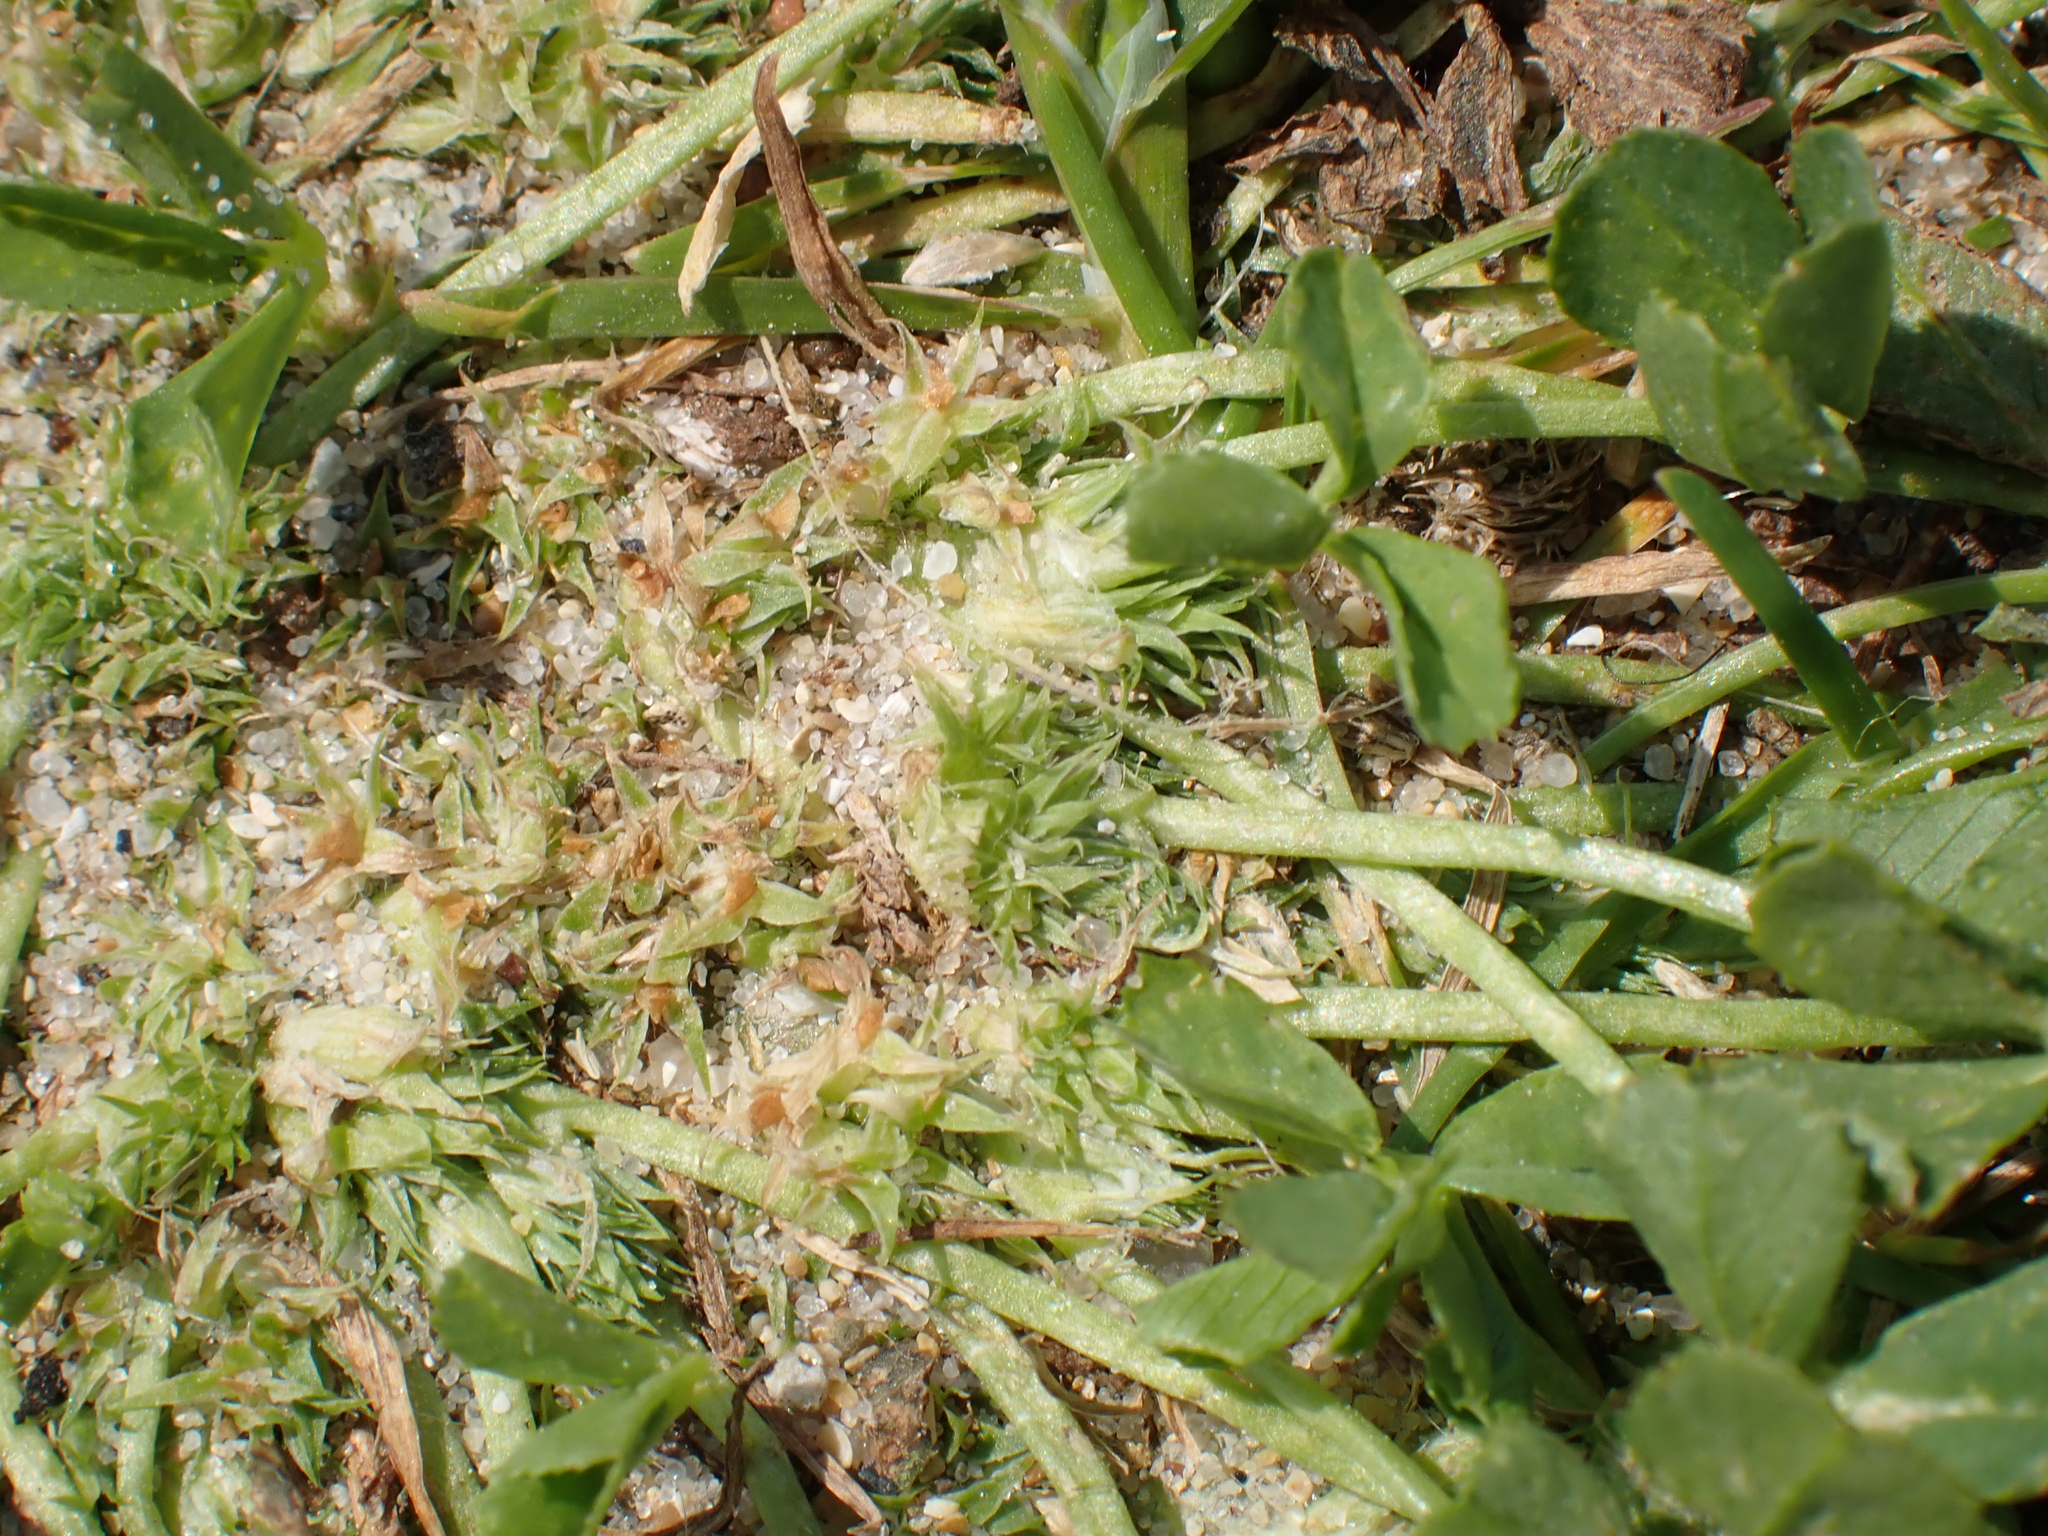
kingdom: Plantae
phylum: Tracheophyta
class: Magnoliopsida
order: Fabales
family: Fabaceae
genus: Trifolium
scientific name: Trifolium suffocatum
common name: Suffocated clover
